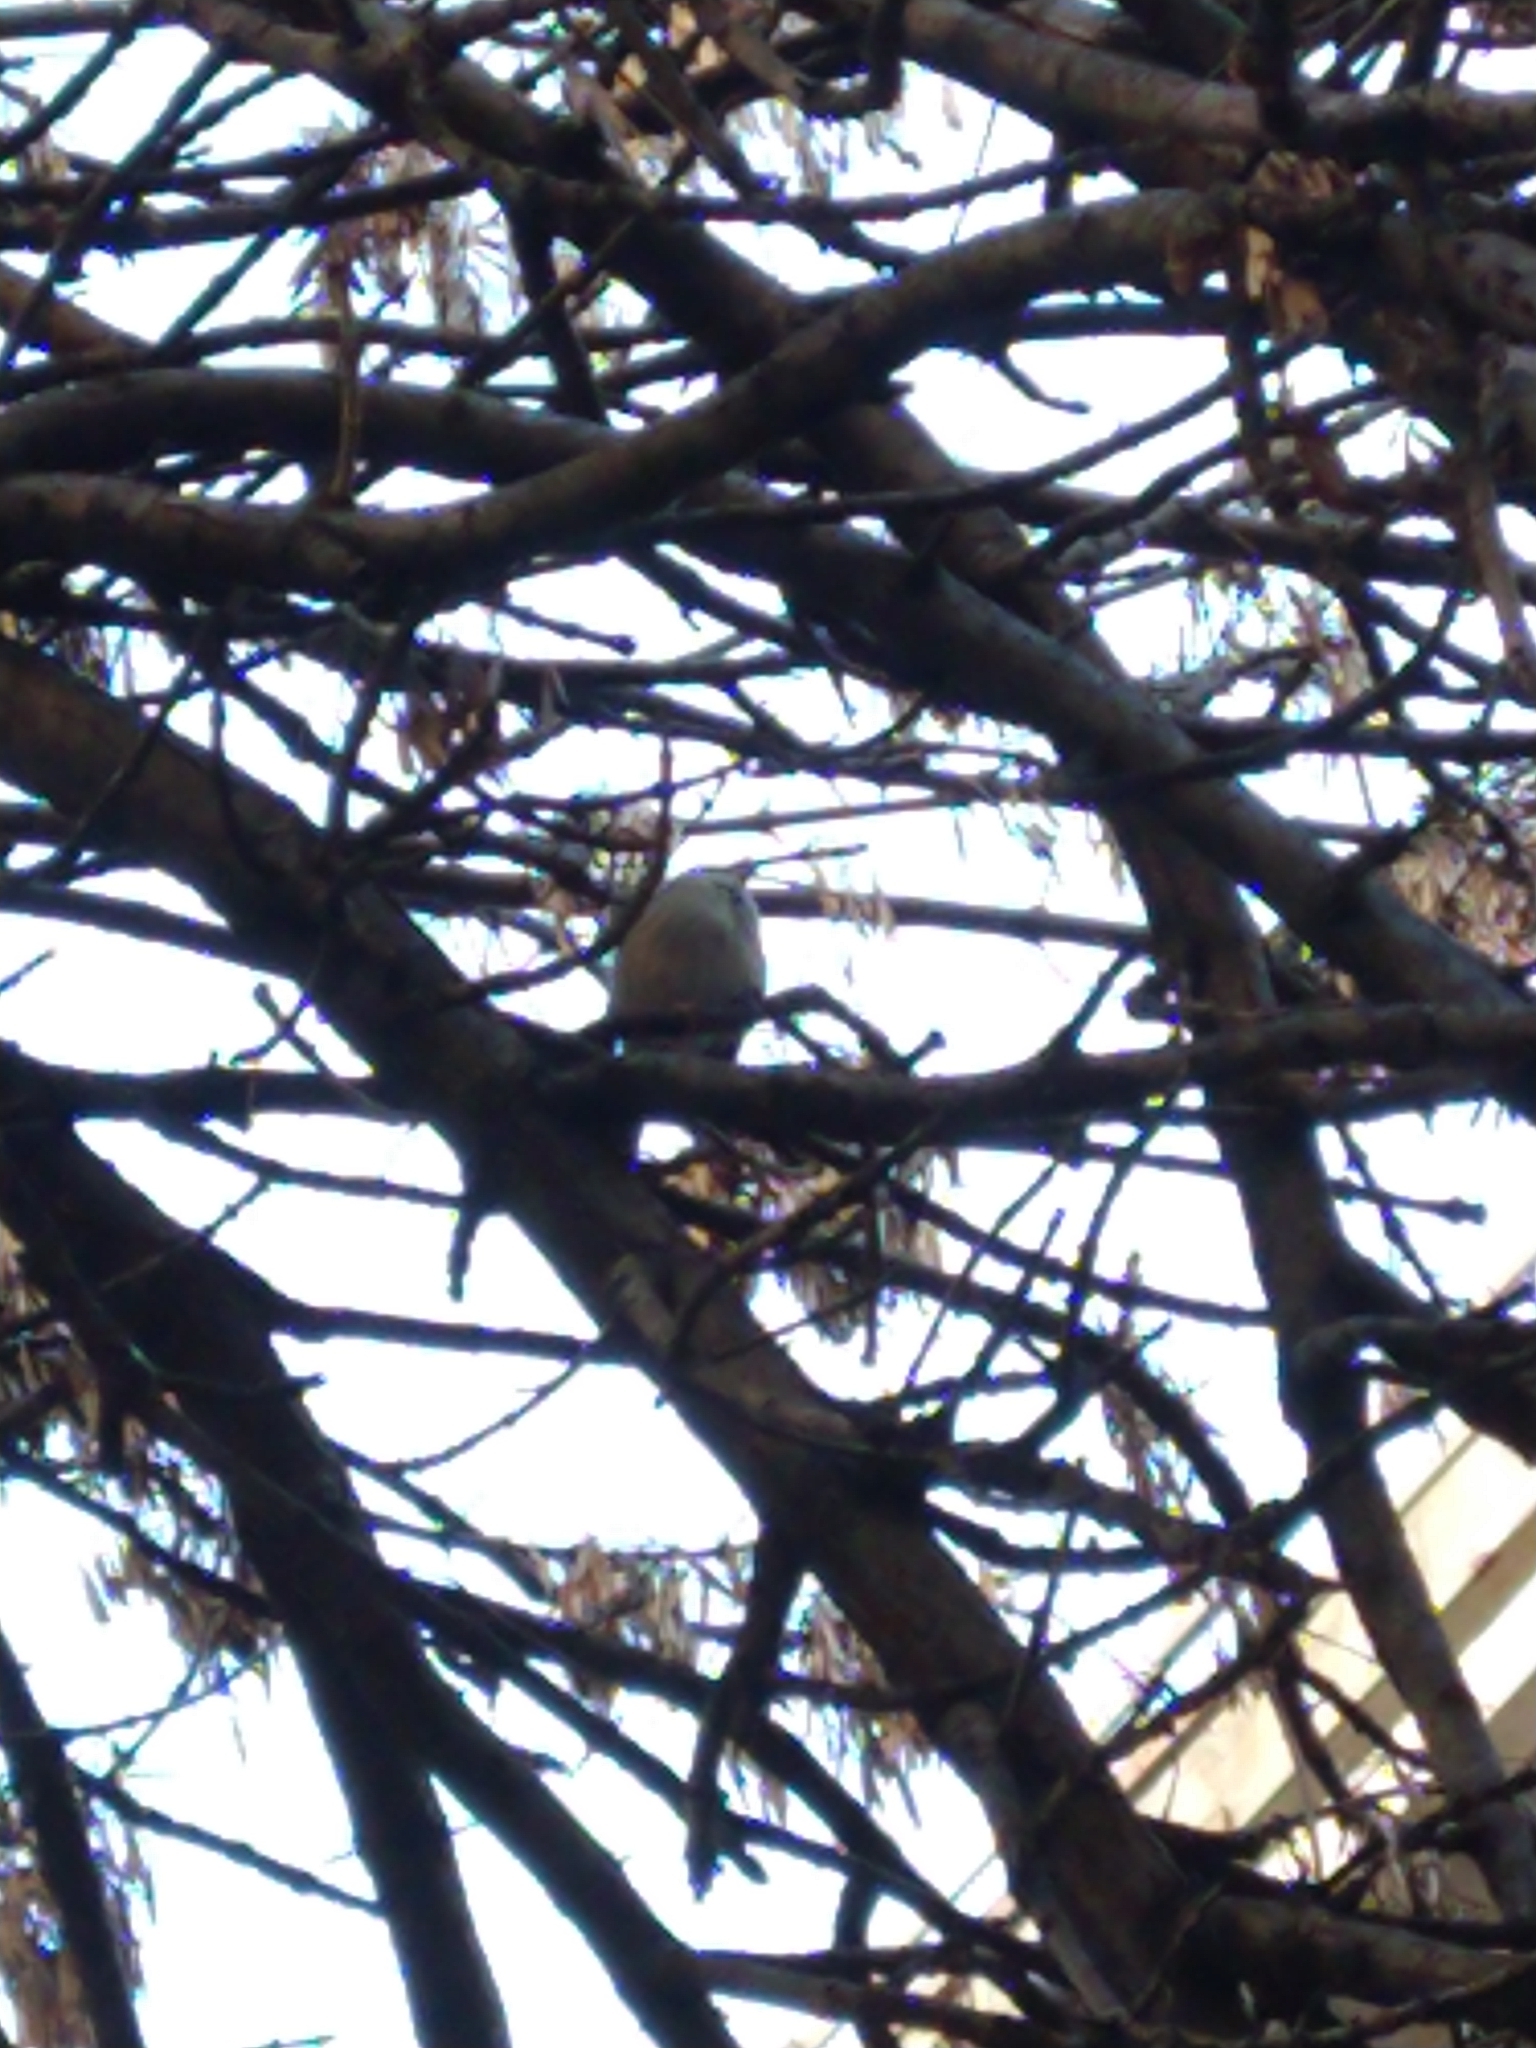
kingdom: Animalia
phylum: Chordata
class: Aves
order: Passeriformes
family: Passeridae
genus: Passer
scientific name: Passer domesticus
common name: House sparrow
